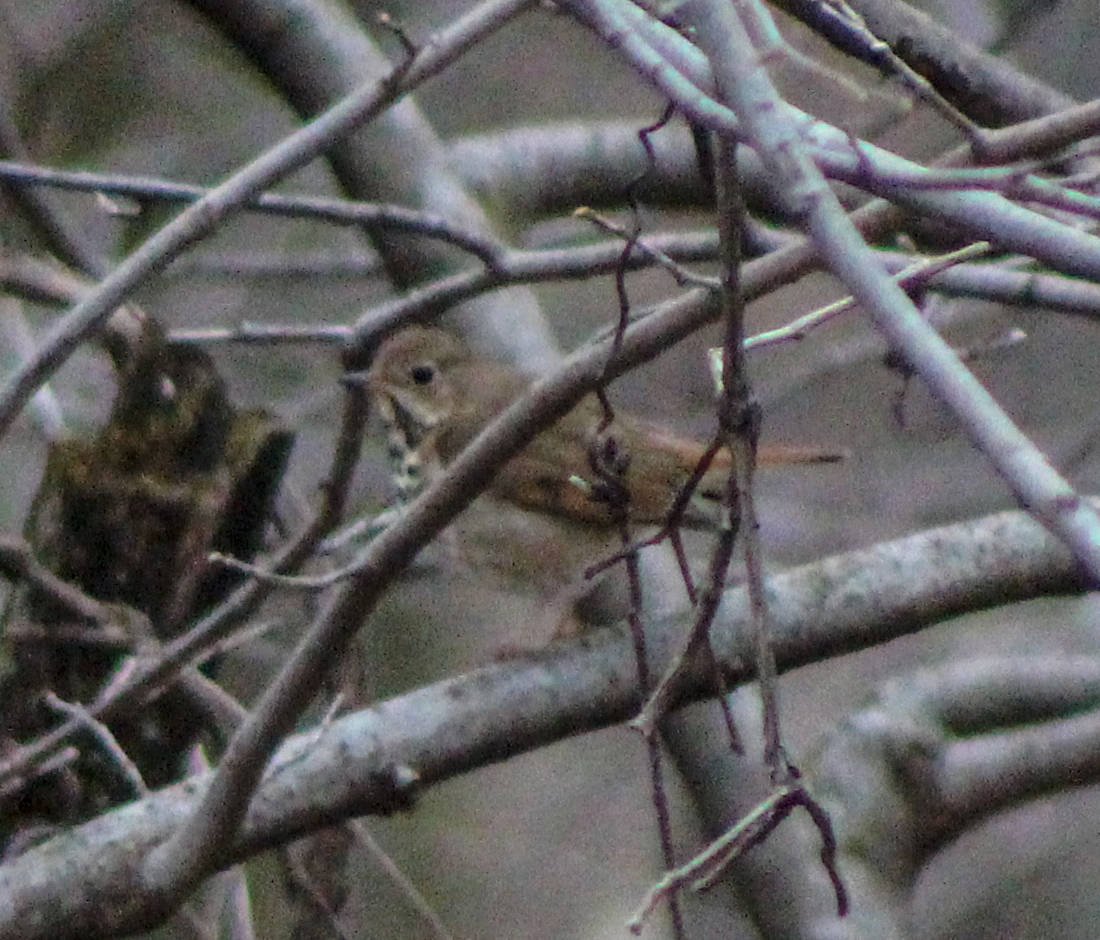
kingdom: Animalia
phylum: Chordata
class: Aves
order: Passeriformes
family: Turdidae
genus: Catharus
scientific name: Catharus guttatus
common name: Hermit thrush
